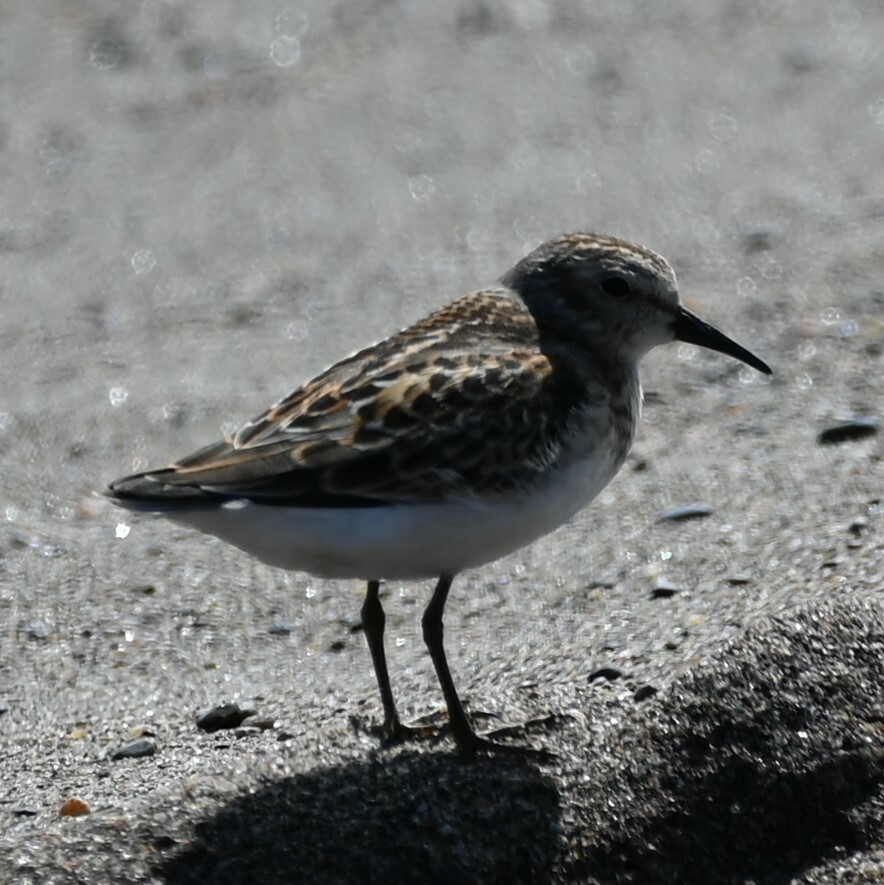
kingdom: Animalia
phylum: Chordata
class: Aves
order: Charadriiformes
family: Scolopacidae
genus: Calidris
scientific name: Calidris minutilla
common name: Least sandpiper
